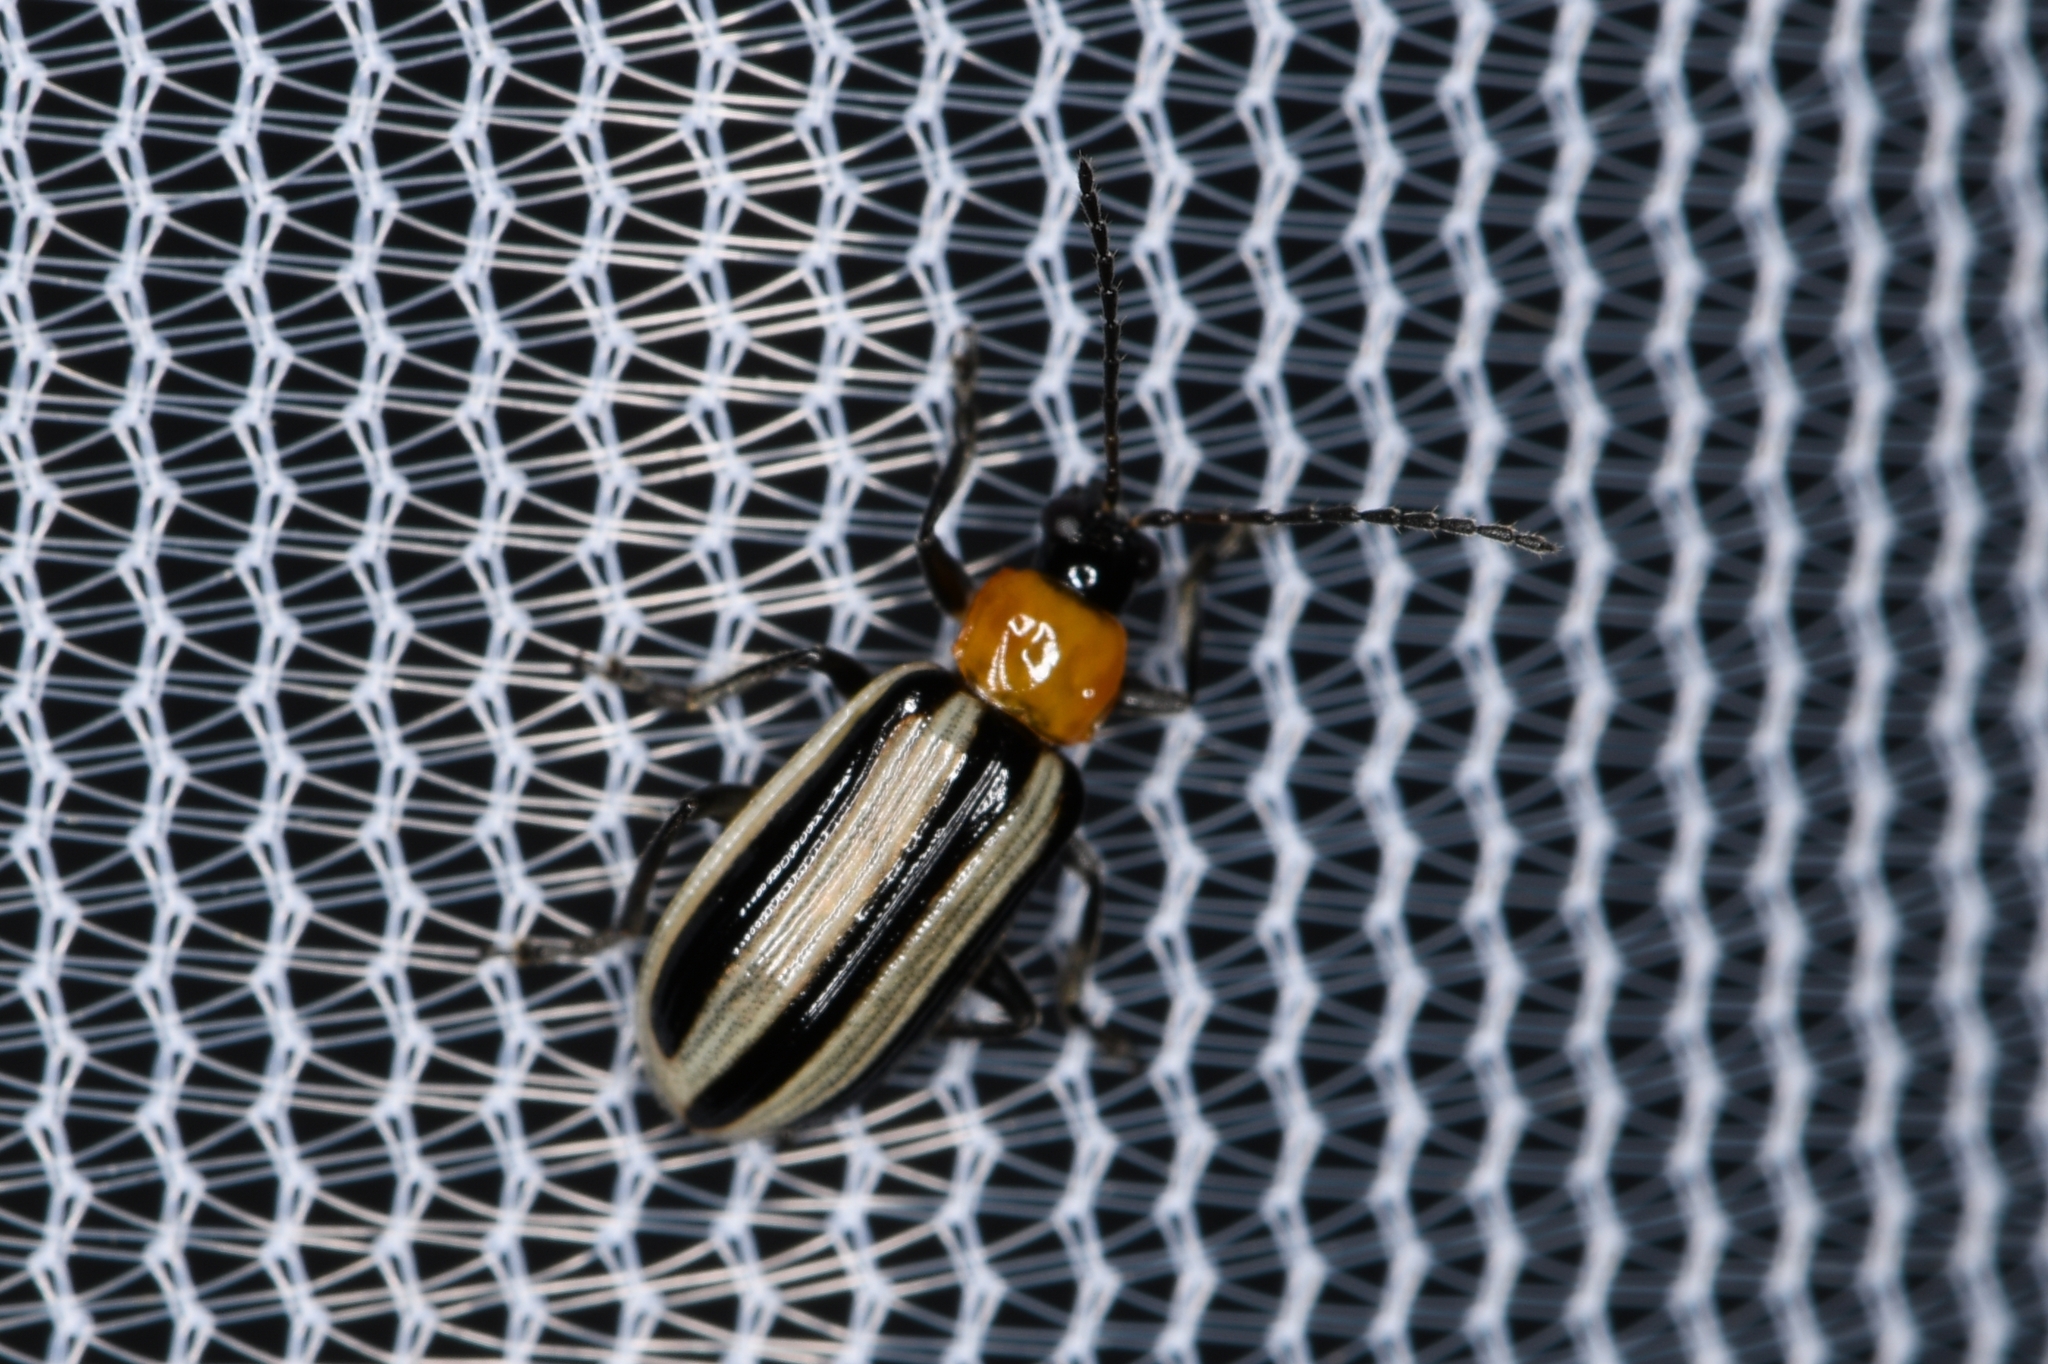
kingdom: Animalia
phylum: Arthropoda
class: Insecta
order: Coleoptera
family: Chrysomelidae
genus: Acalymma
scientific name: Acalymma trivittatum
